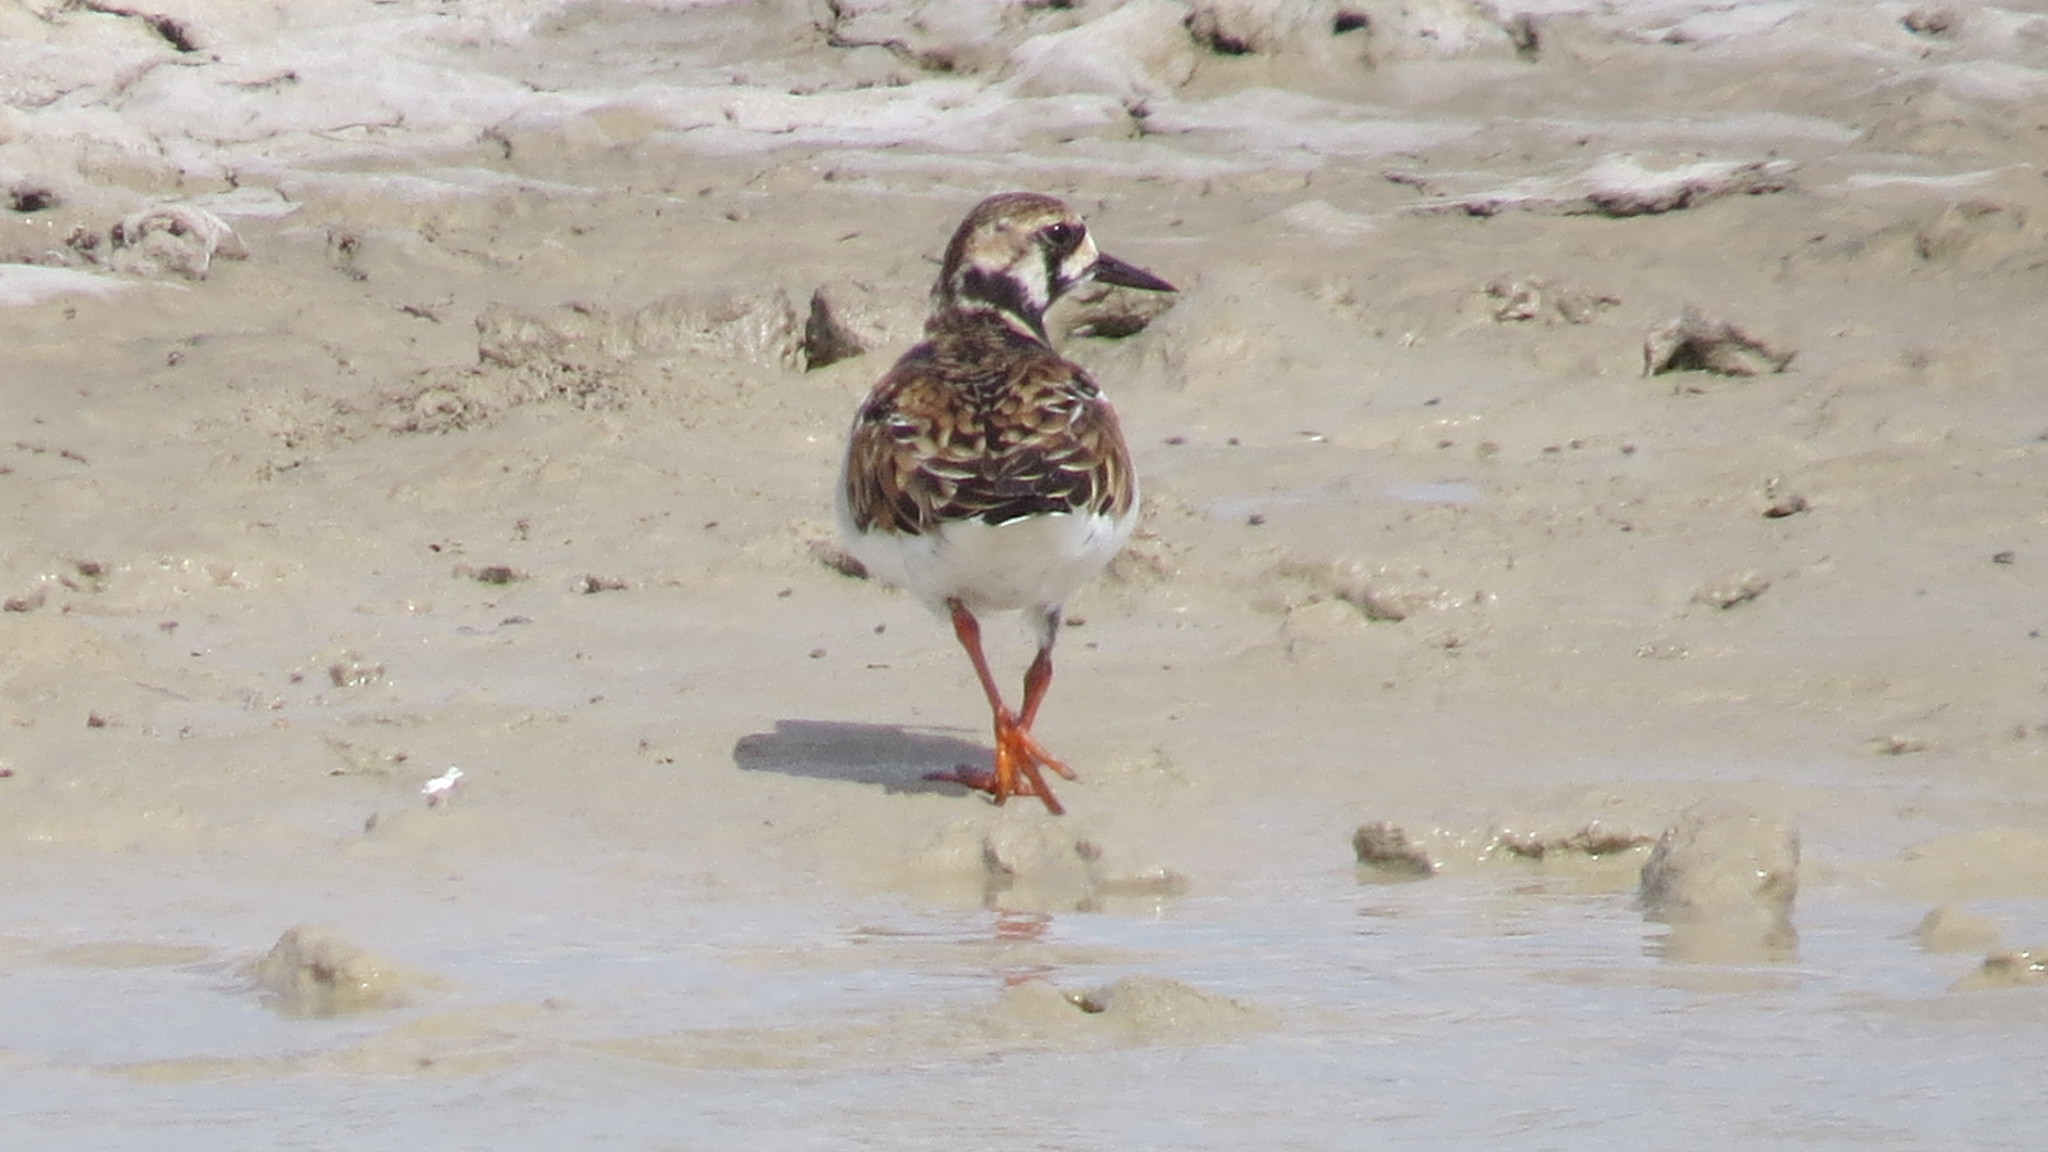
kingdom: Animalia
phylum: Chordata
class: Aves
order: Charadriiformes
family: Scolopacidae
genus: Arenaria
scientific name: Arenaria interpres
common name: Ruddy turnstone
